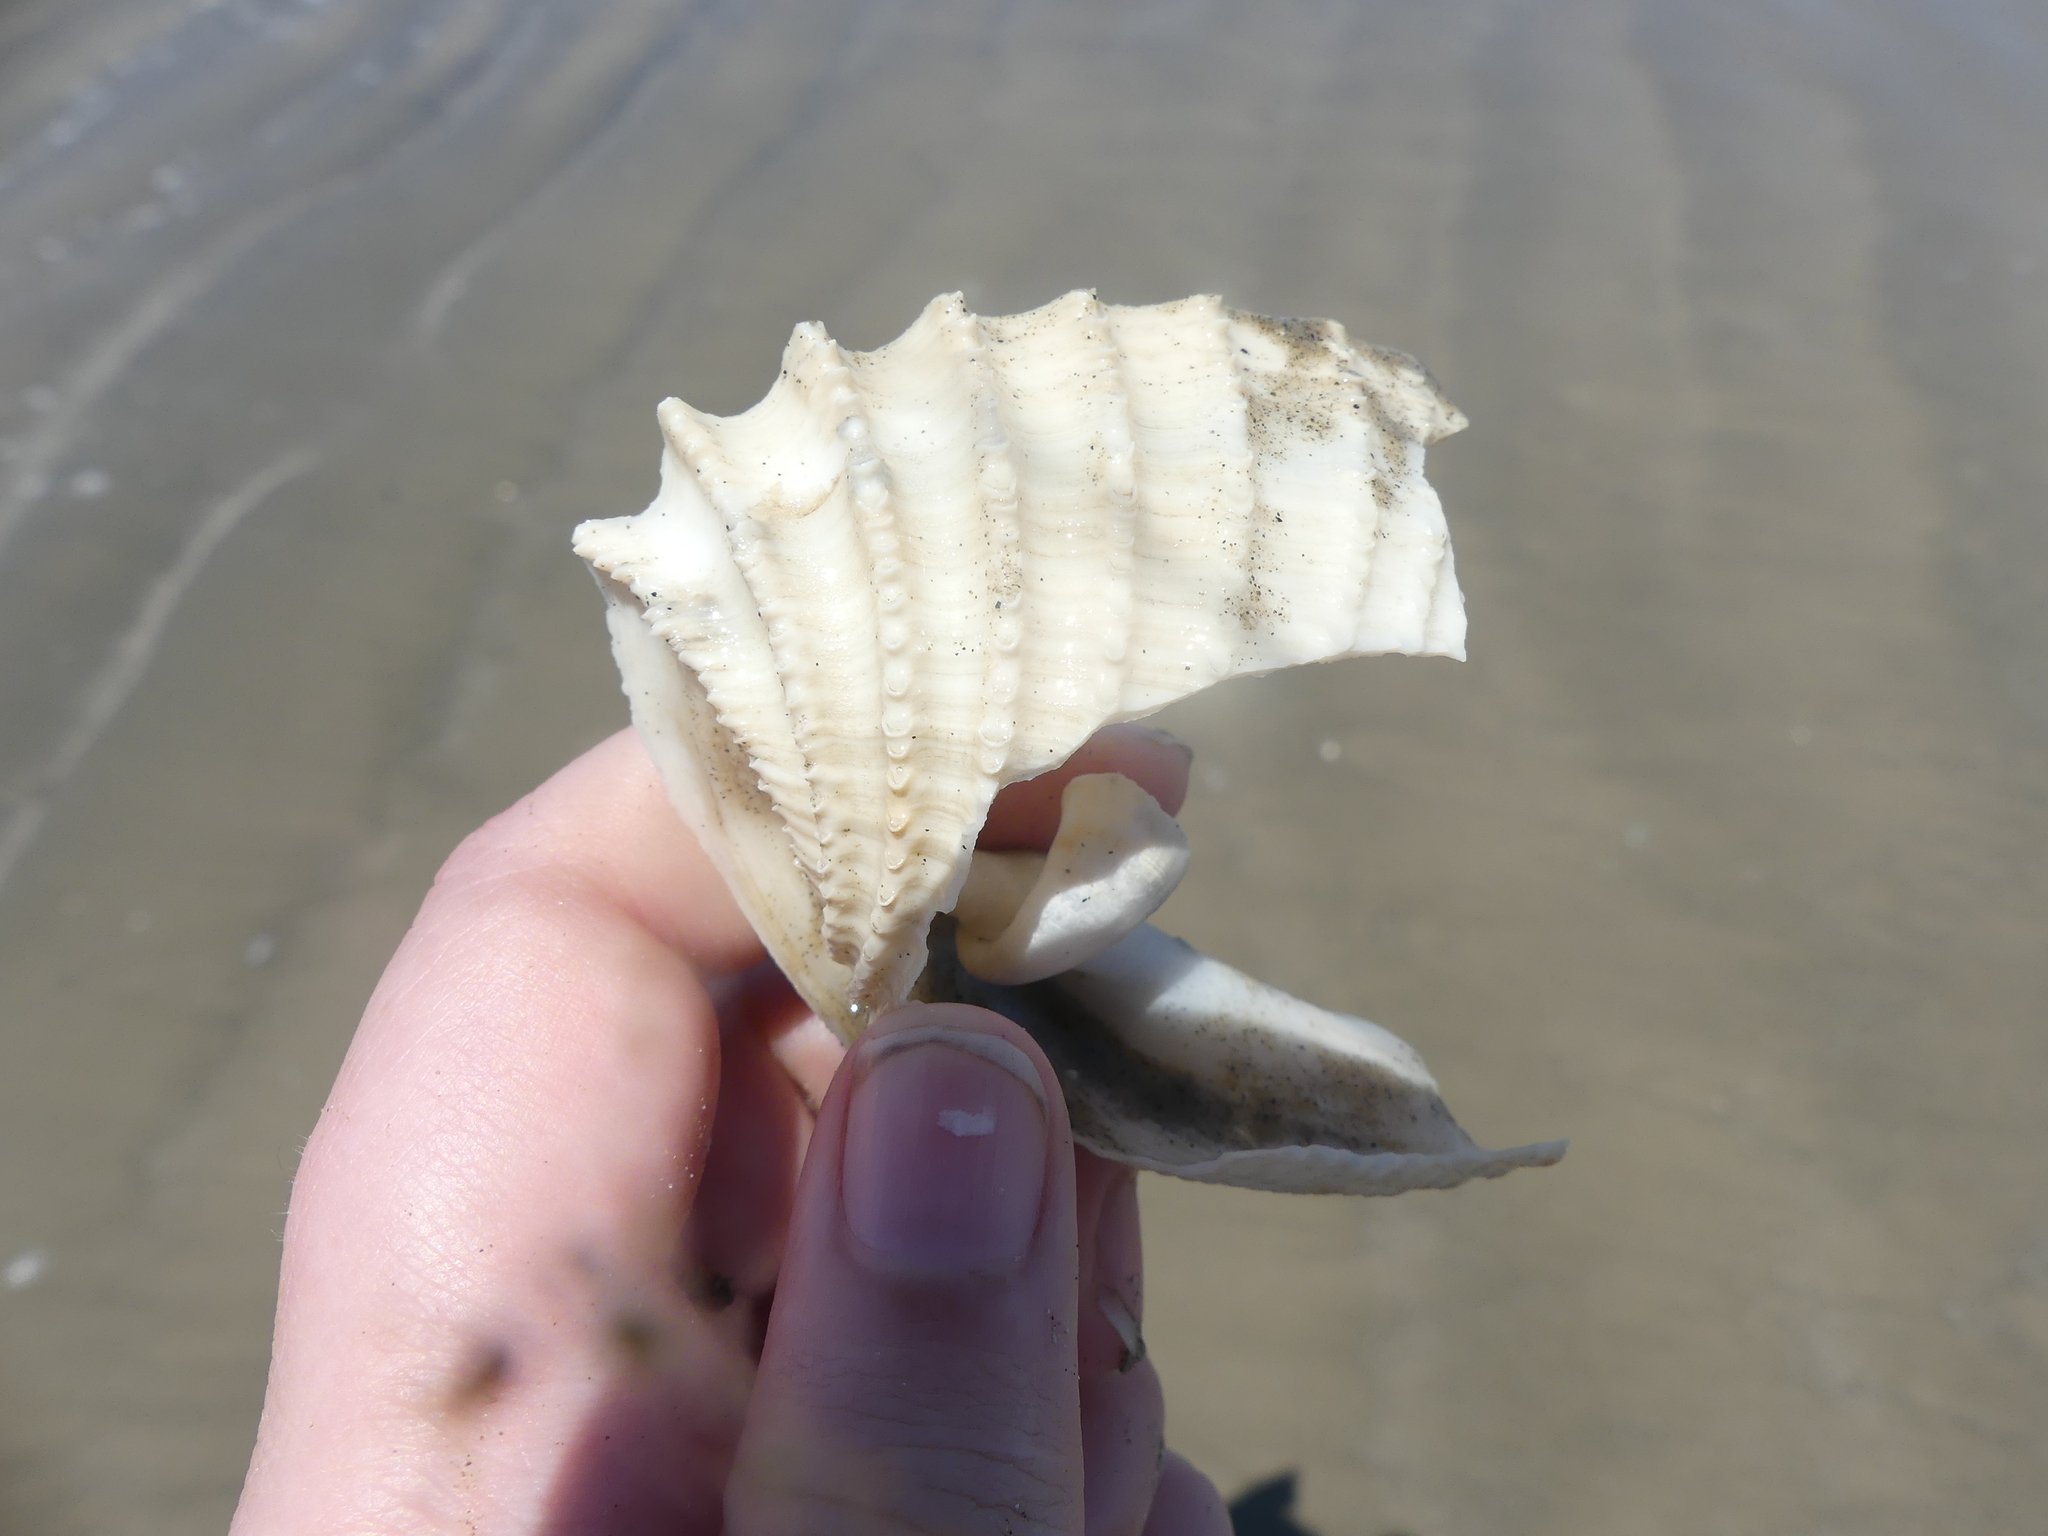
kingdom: Animalia
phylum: Mollusca
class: Bivalvia
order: Myida
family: Pholadidae
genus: Cyrtopleura
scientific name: Cyrtopleura costata
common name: Angel wing
